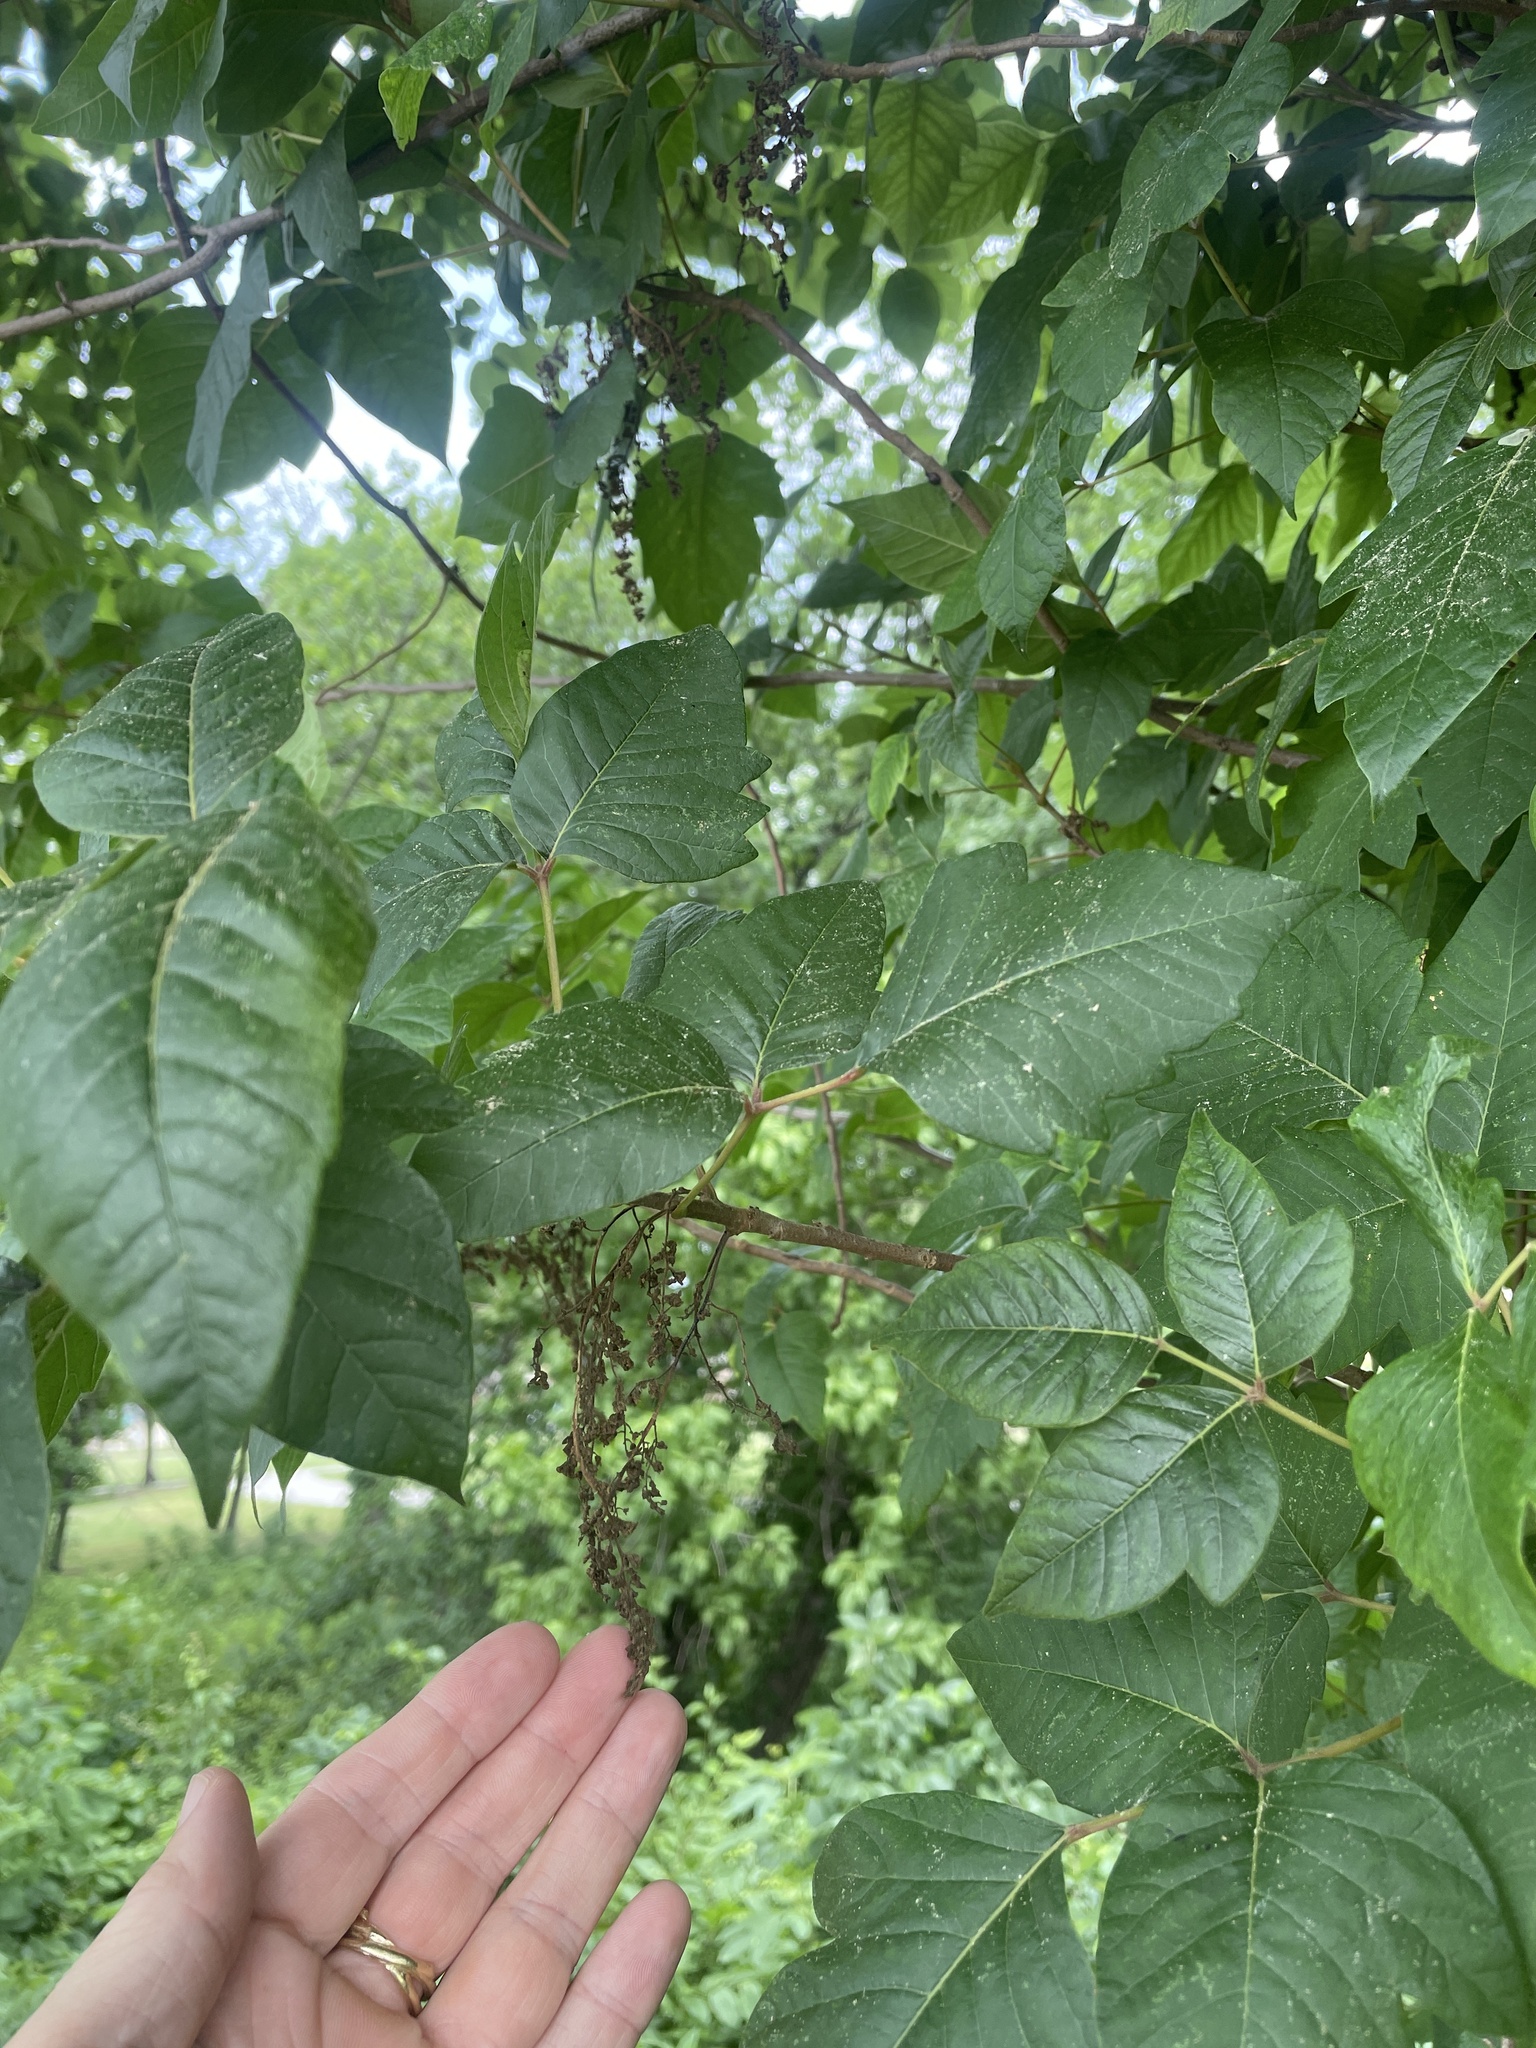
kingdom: Plantae
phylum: Tracheophyta
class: Magnoliopsida
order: Sapindales
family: Anacardiaceae
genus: Toxicodendron
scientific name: Toxicodendron radicans
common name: Poison ivy
